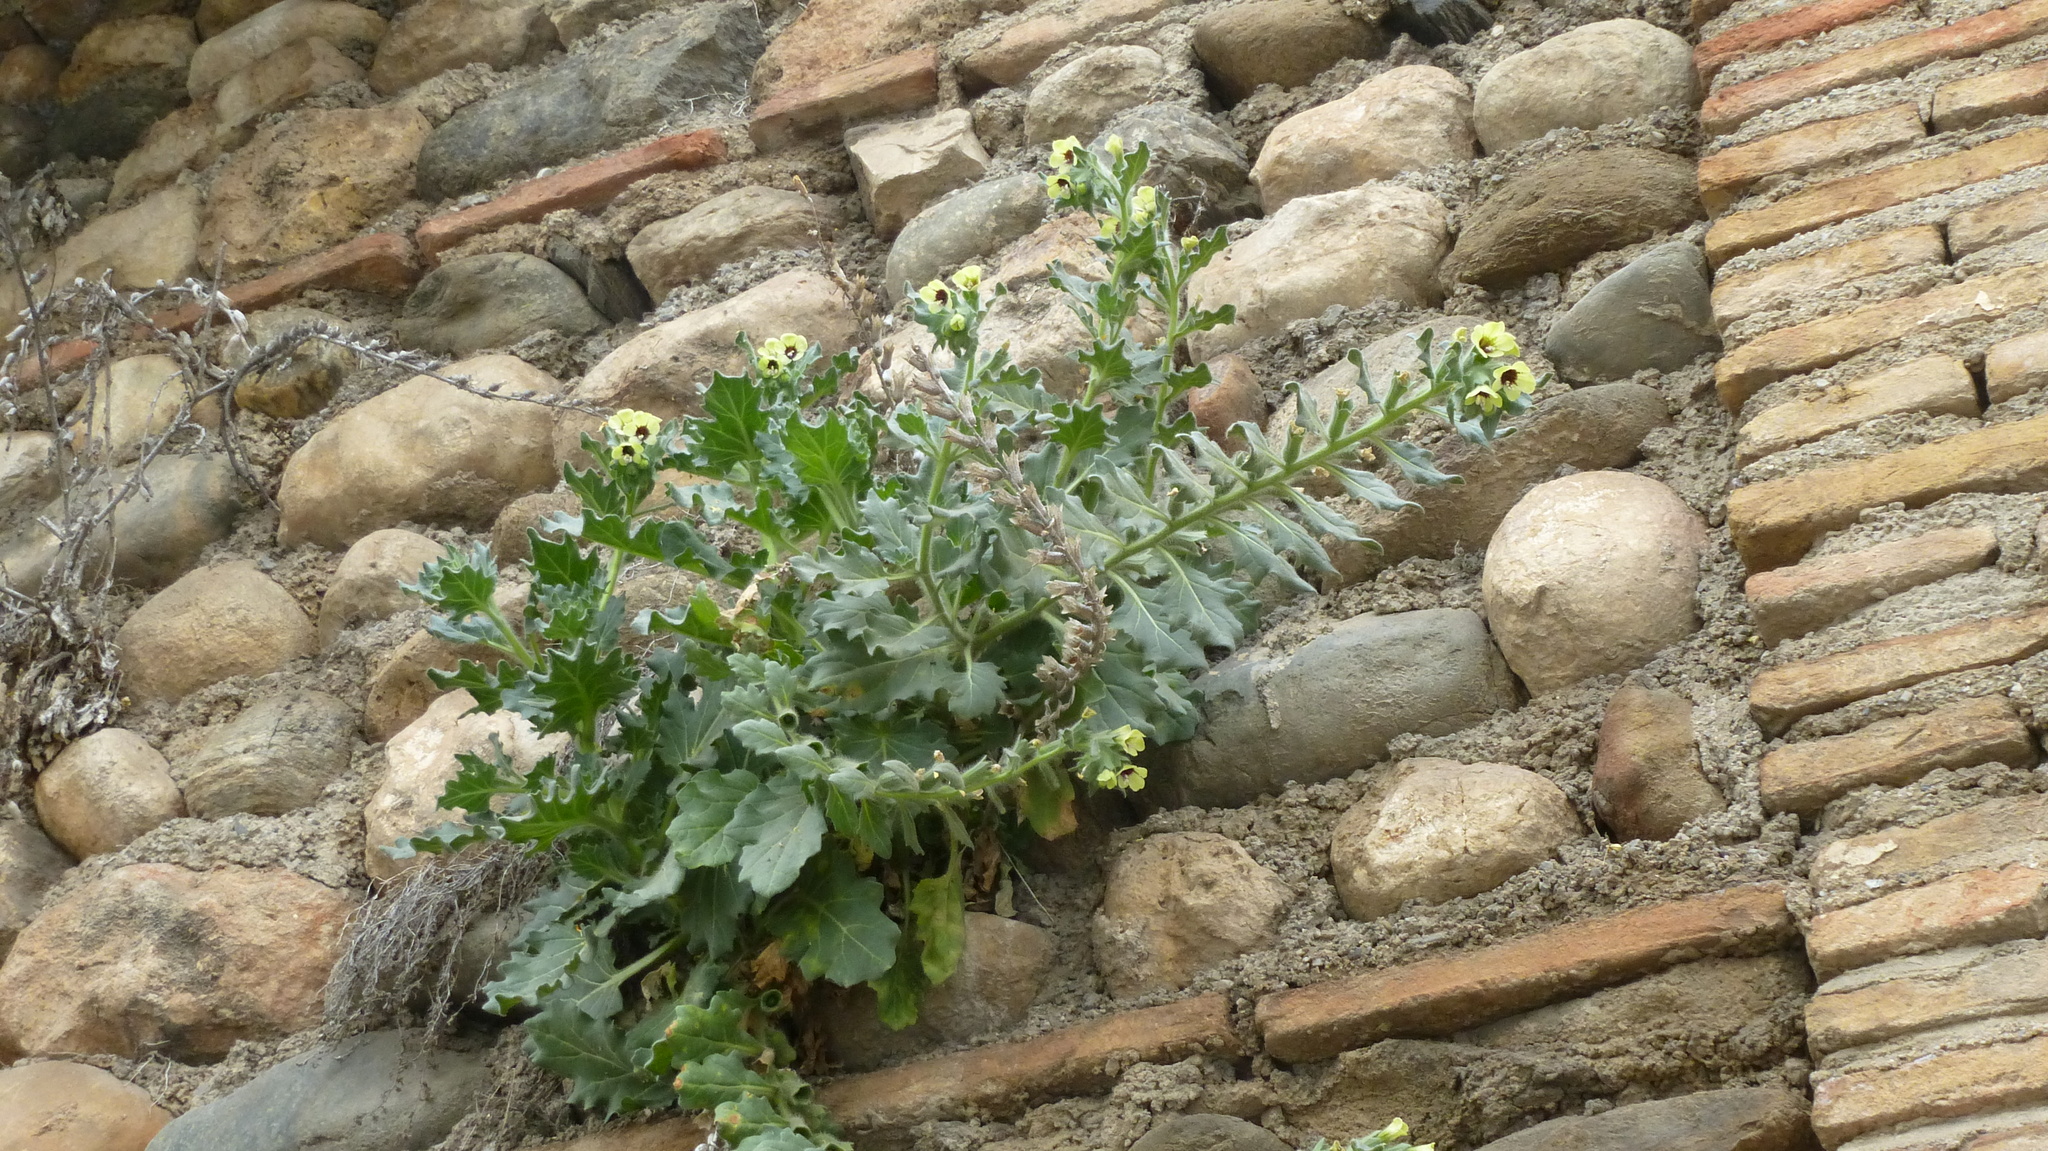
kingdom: Plantae
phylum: Tracheophyta
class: Magnoliopsida
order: Solanales
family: Solanaceae
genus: Hyoscyamus
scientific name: Hyoscyamus albus
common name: White henbane
